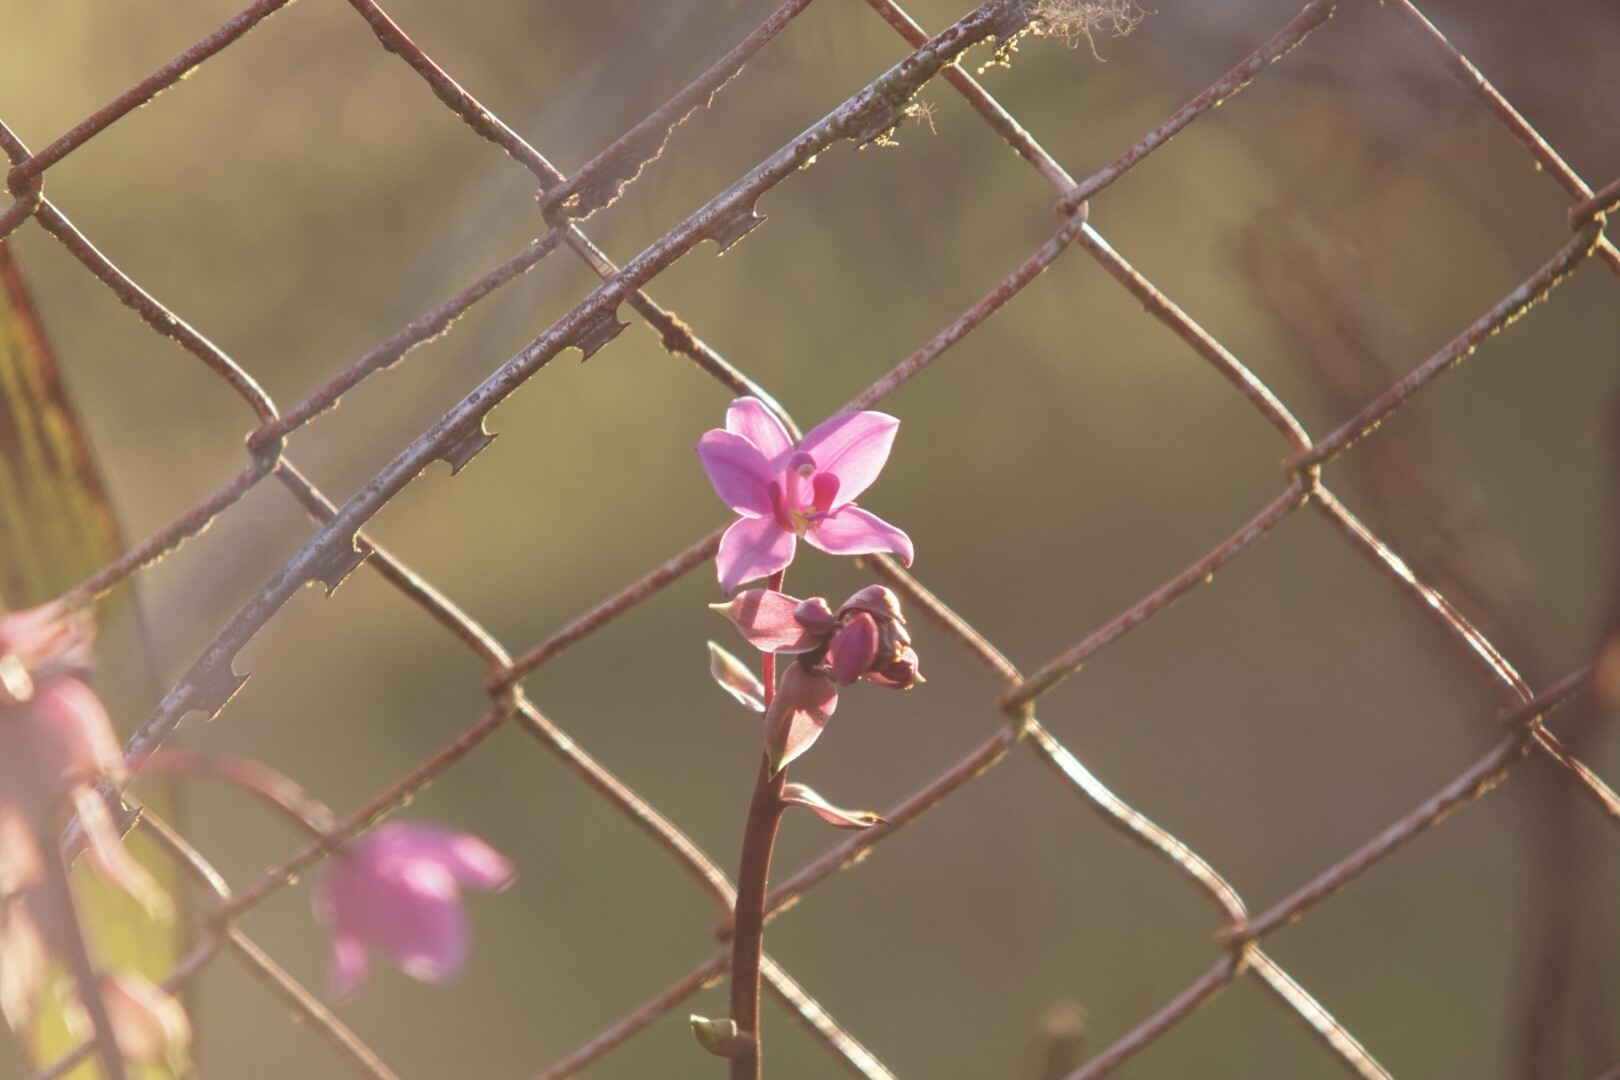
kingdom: Plantae
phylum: Tracheophyta
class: Liliopsida
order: Asparagales
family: Orchidaceae
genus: Spathoglottis
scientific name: Spathoglottis plicata
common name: Philippine ground orchid
